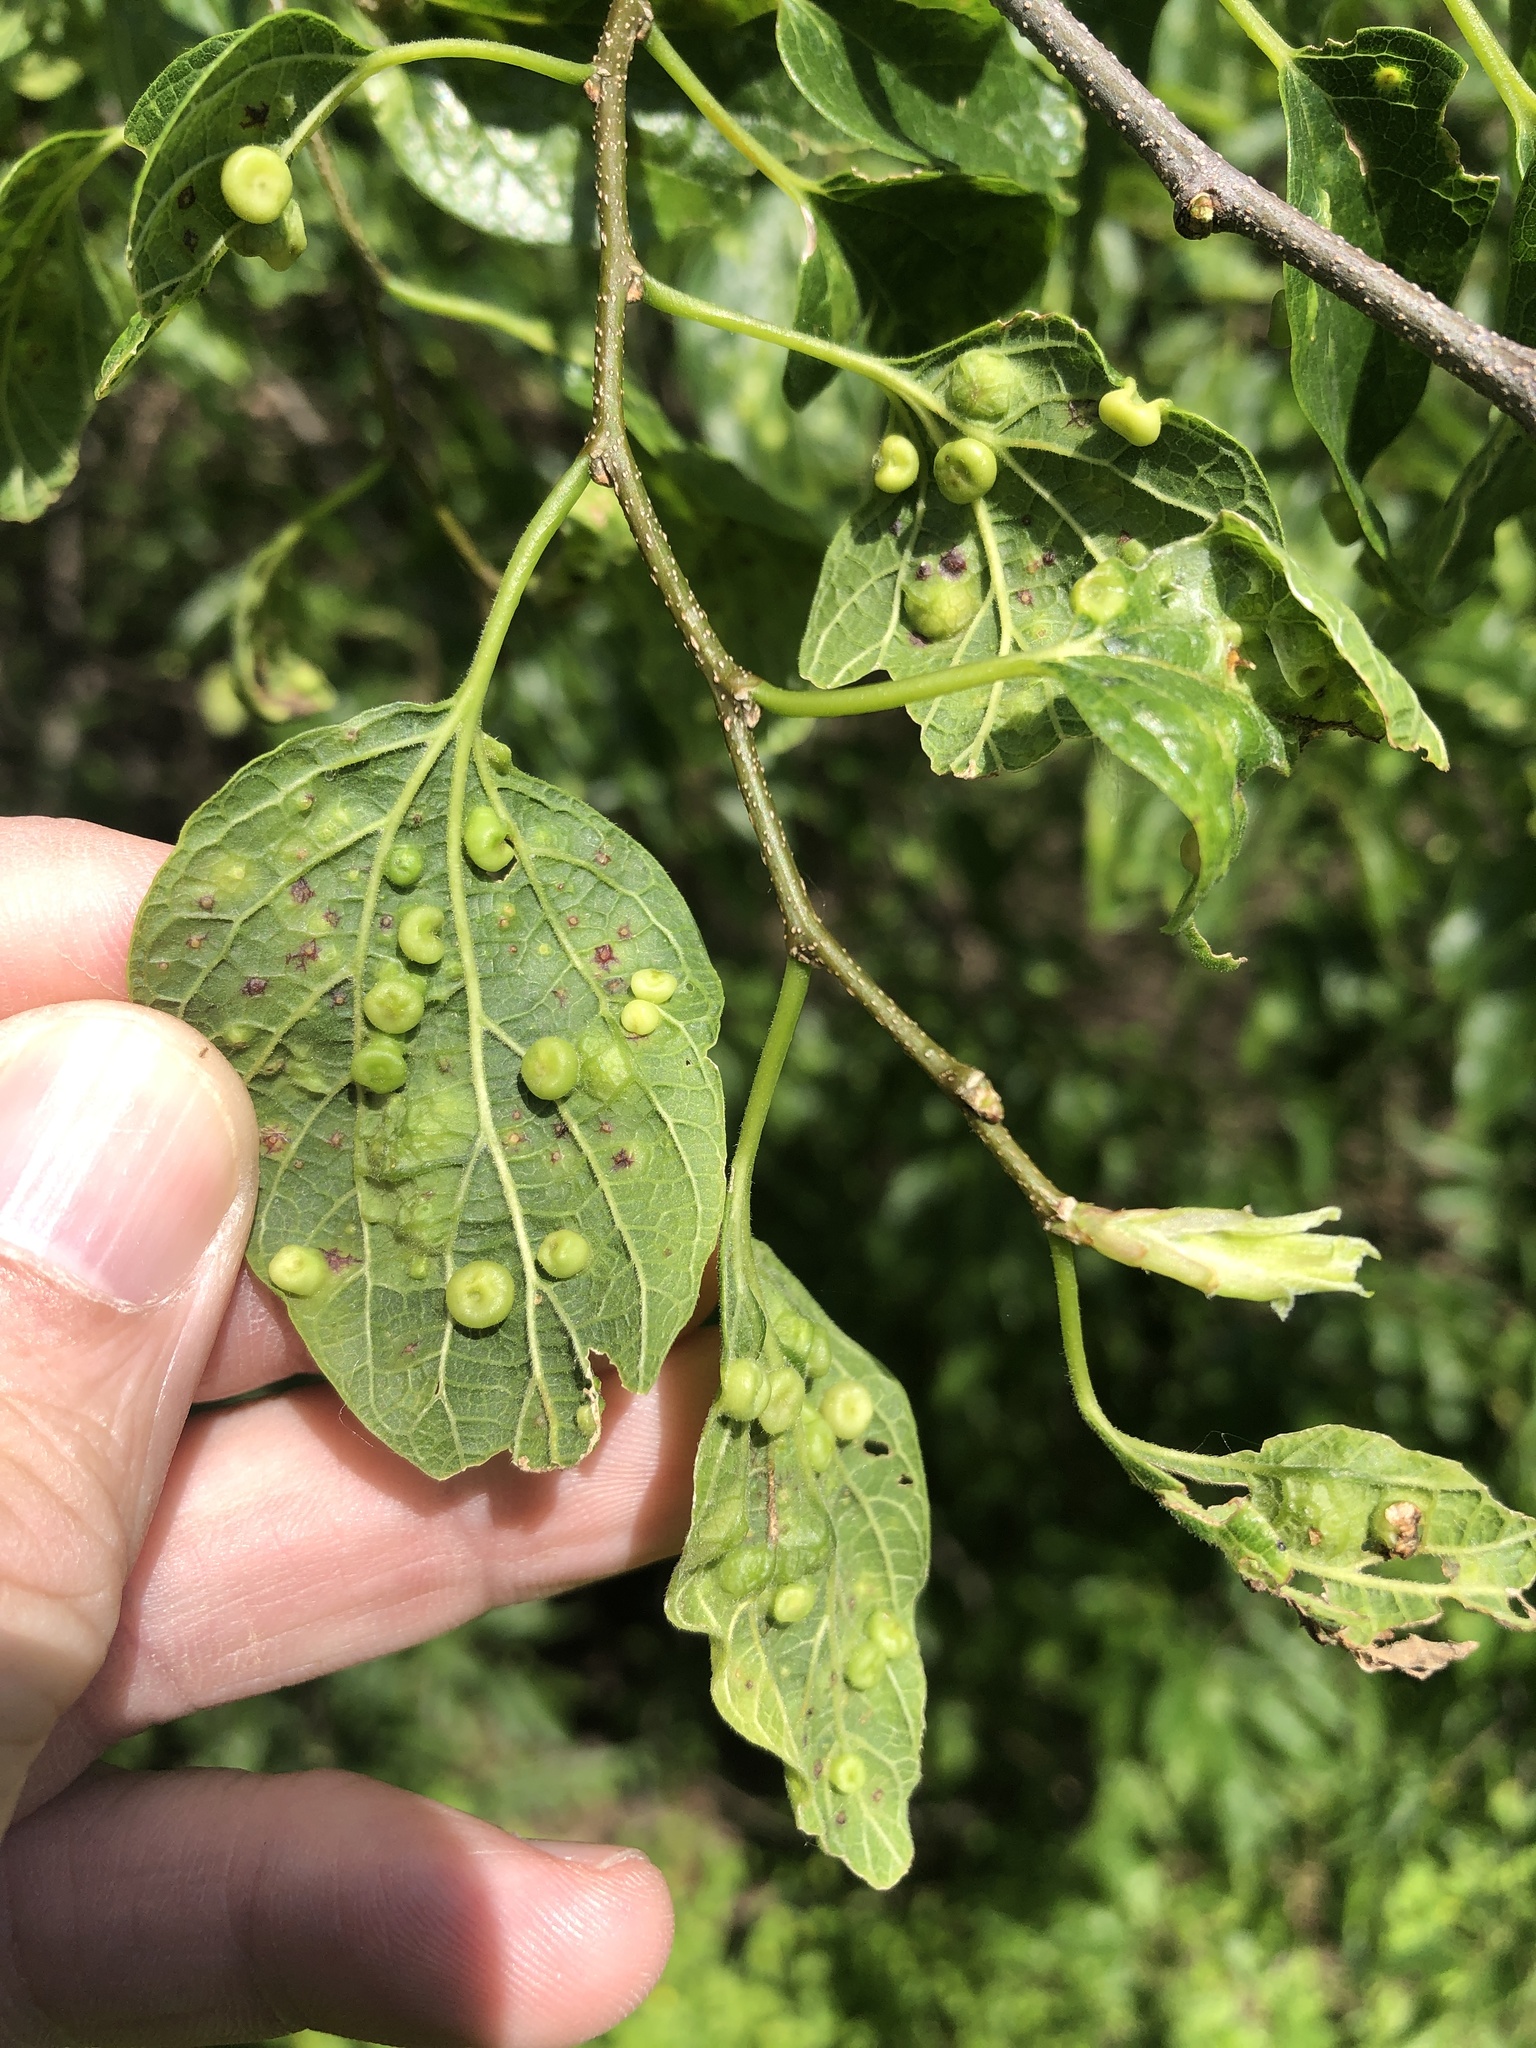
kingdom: Animalia
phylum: Arthropoda
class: Insecta
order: Hemiptera
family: Aphalaridae
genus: Pachypsylla
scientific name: Pachypsylla celtidismamma
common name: Hackberry nipplegall psyllid
